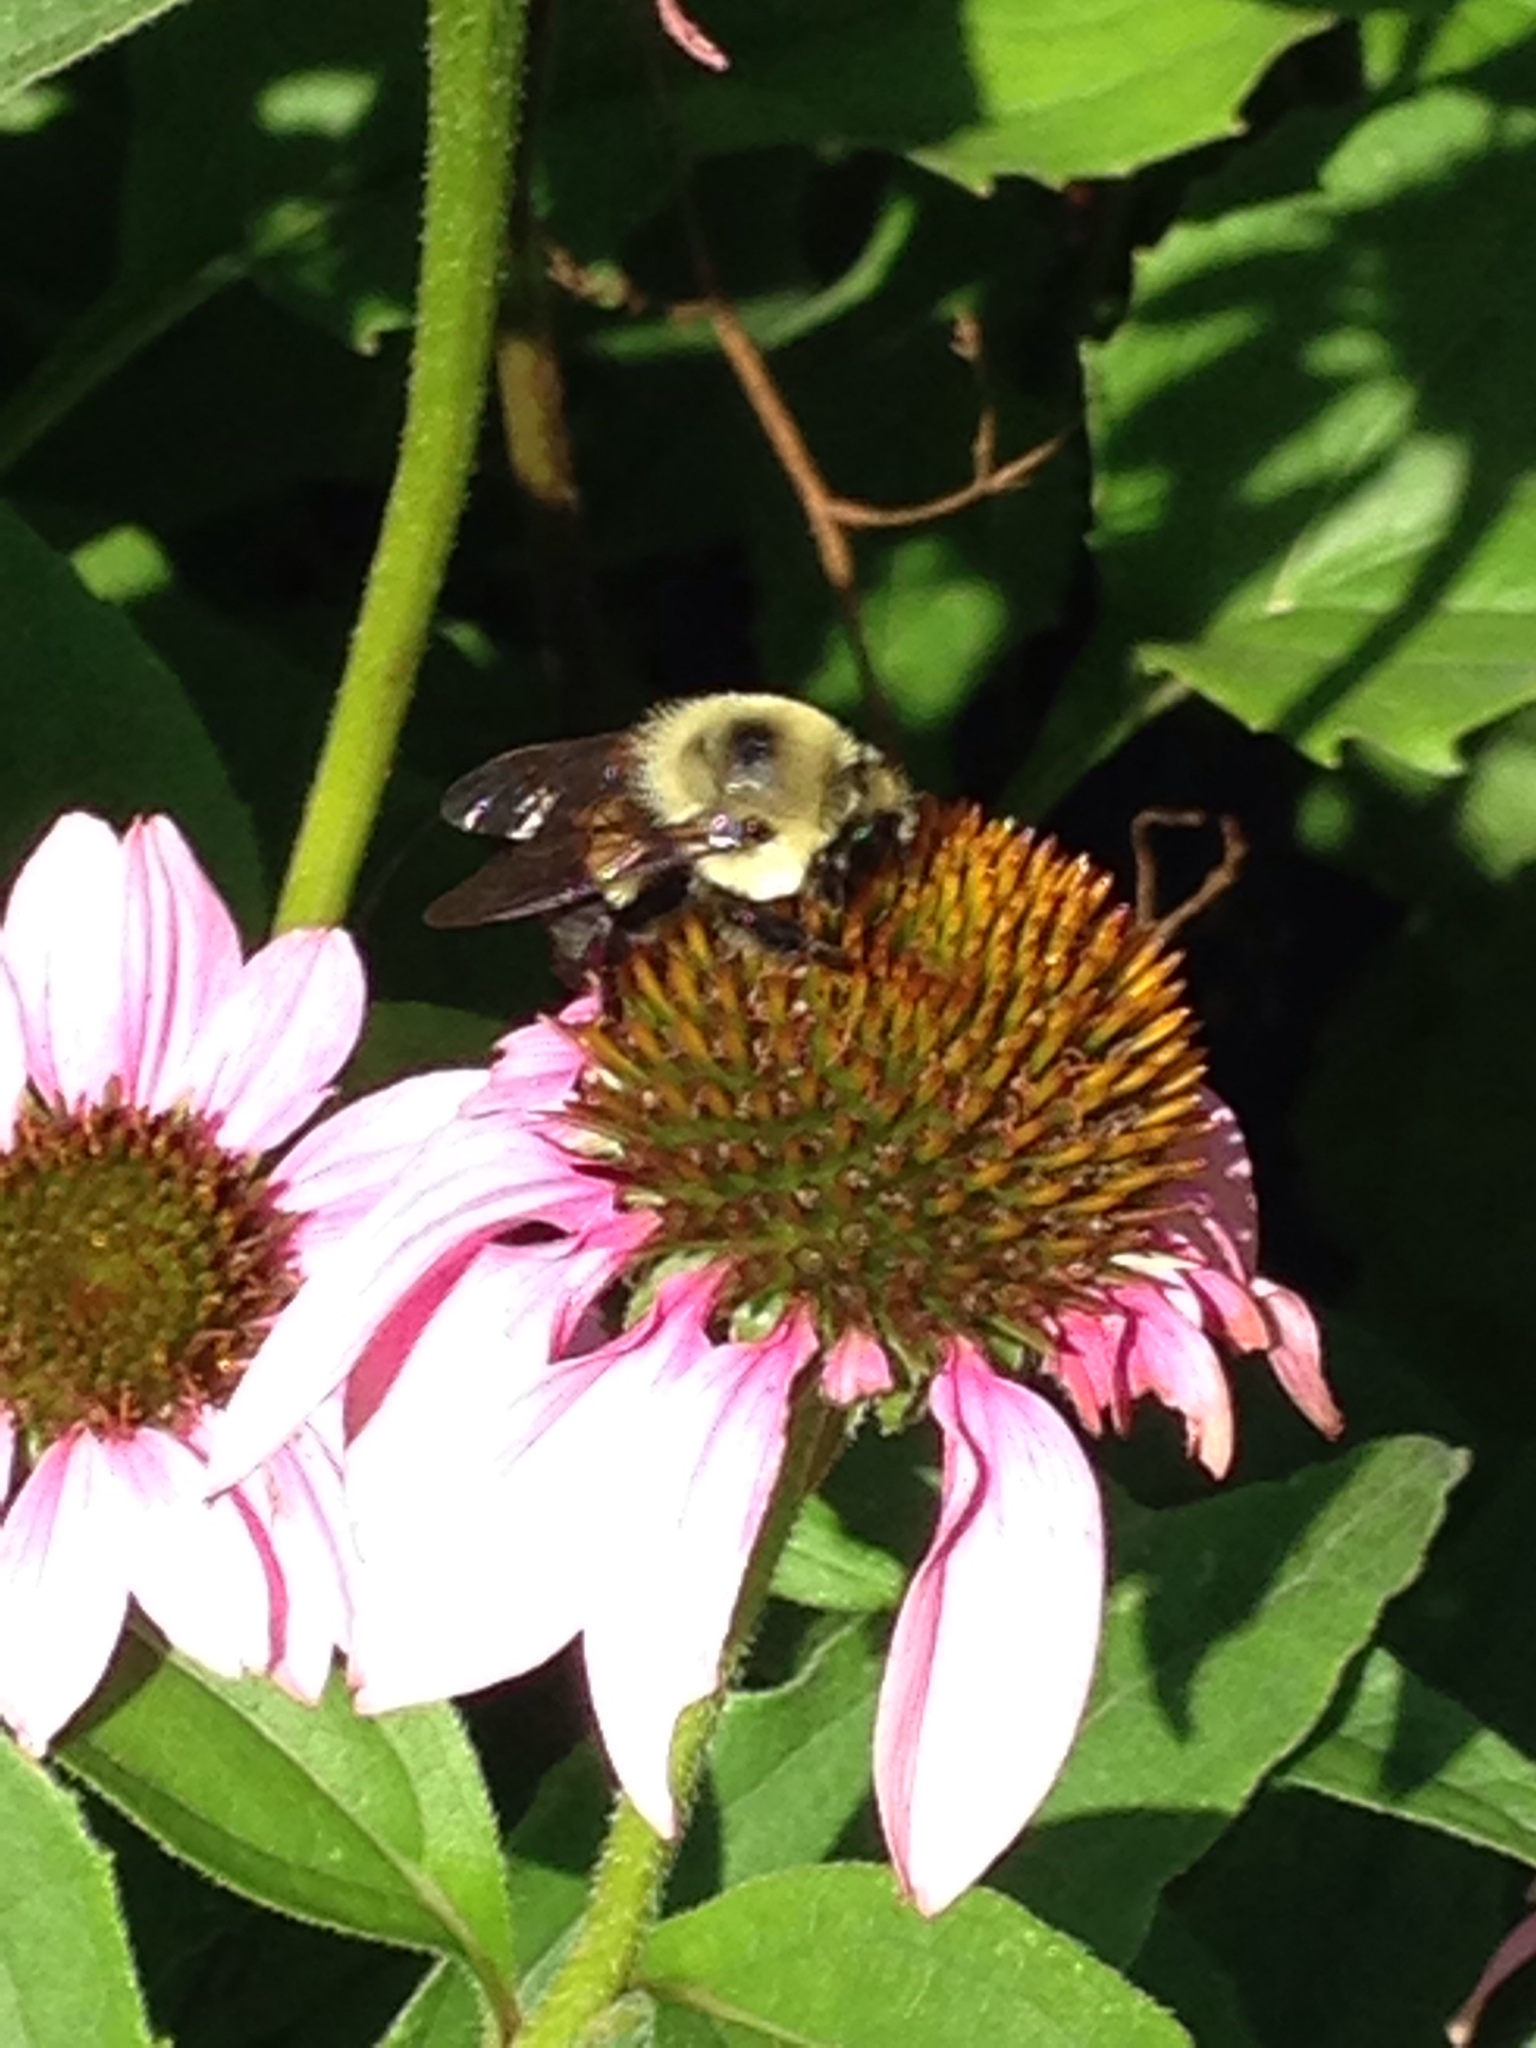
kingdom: Animalia
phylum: Arthropoda
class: Insecta
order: Hymenoptera
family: Apidae
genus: Bombus
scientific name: Bombus griseocollis
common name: Brown-belted bumble bee
